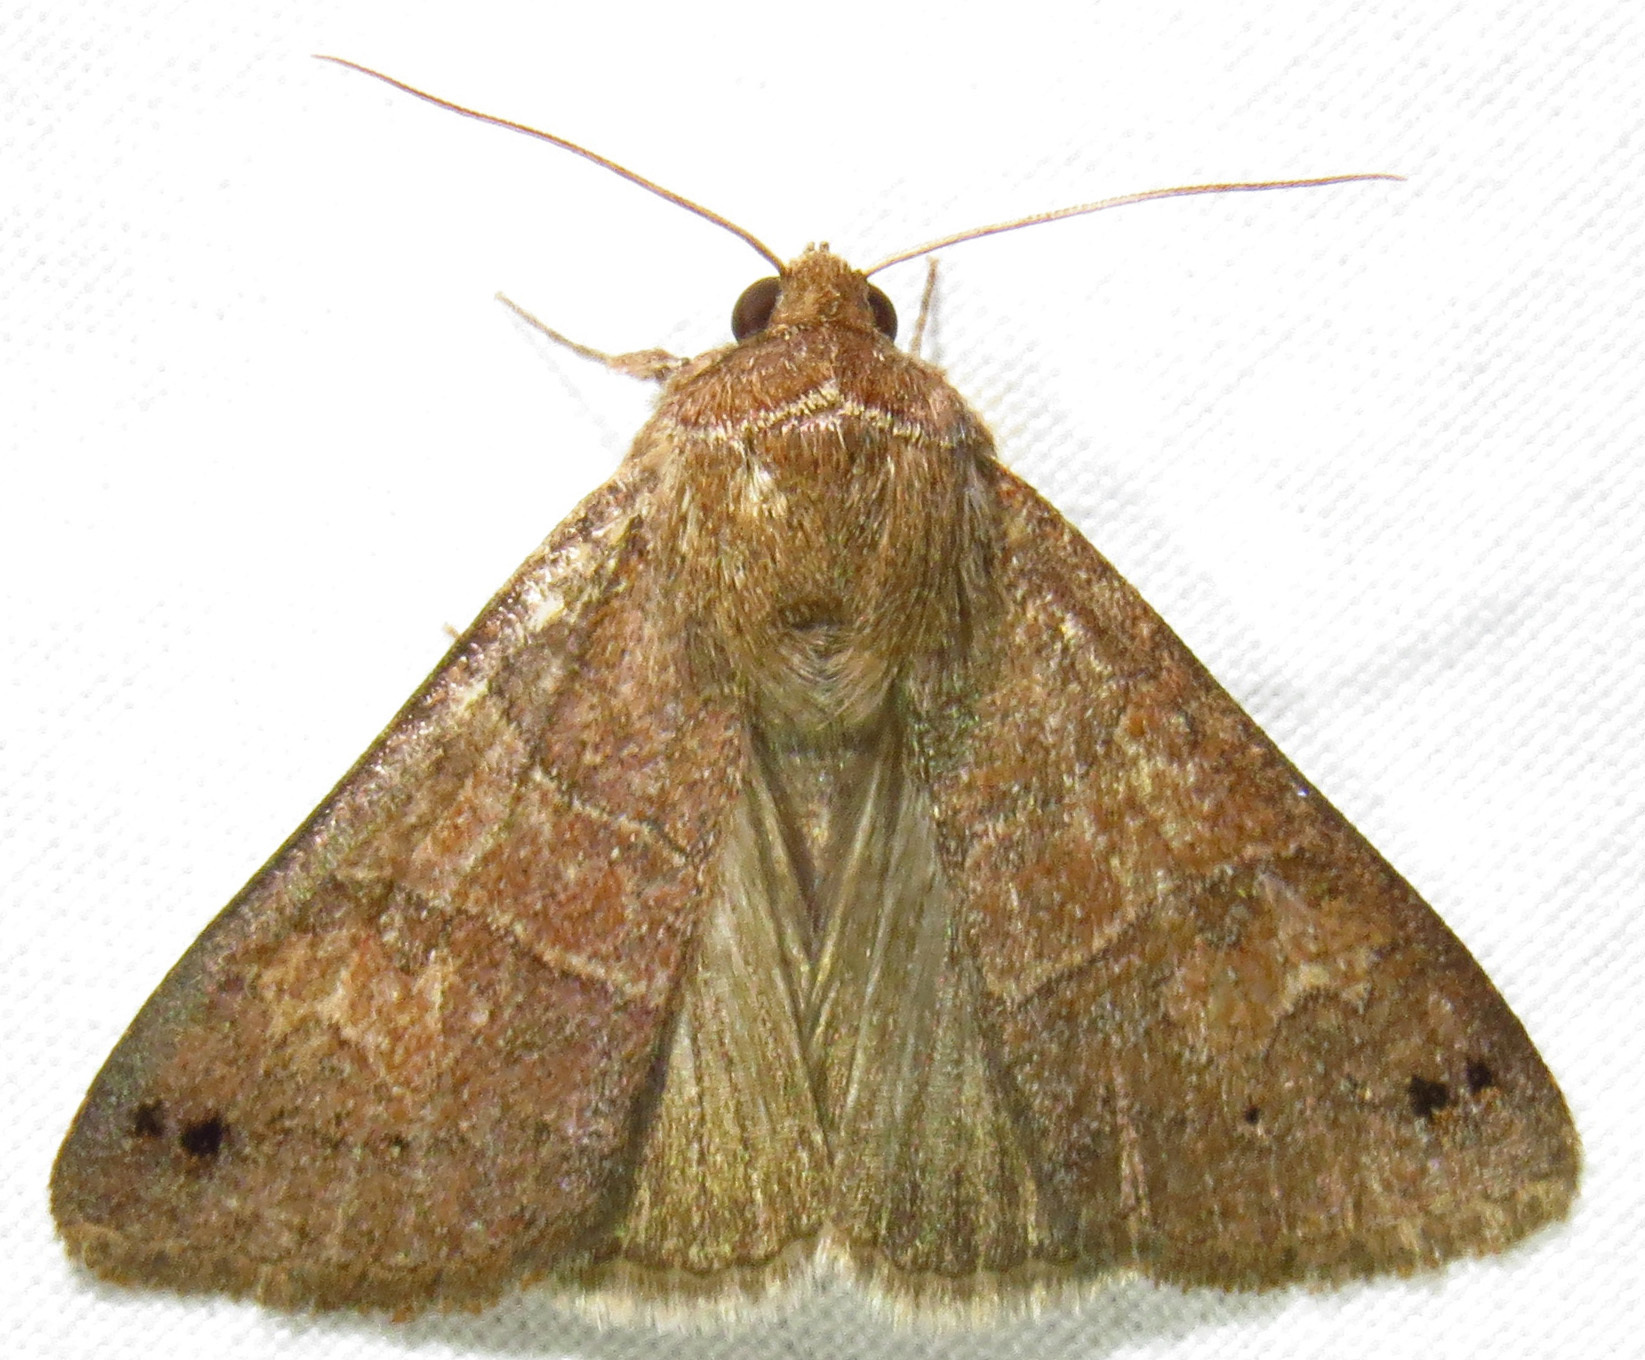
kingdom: Animalia
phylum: Arthropoda
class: Insecta
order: Lepidoptera
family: Erebidae
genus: Cissusa
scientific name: Cissusa spadix
